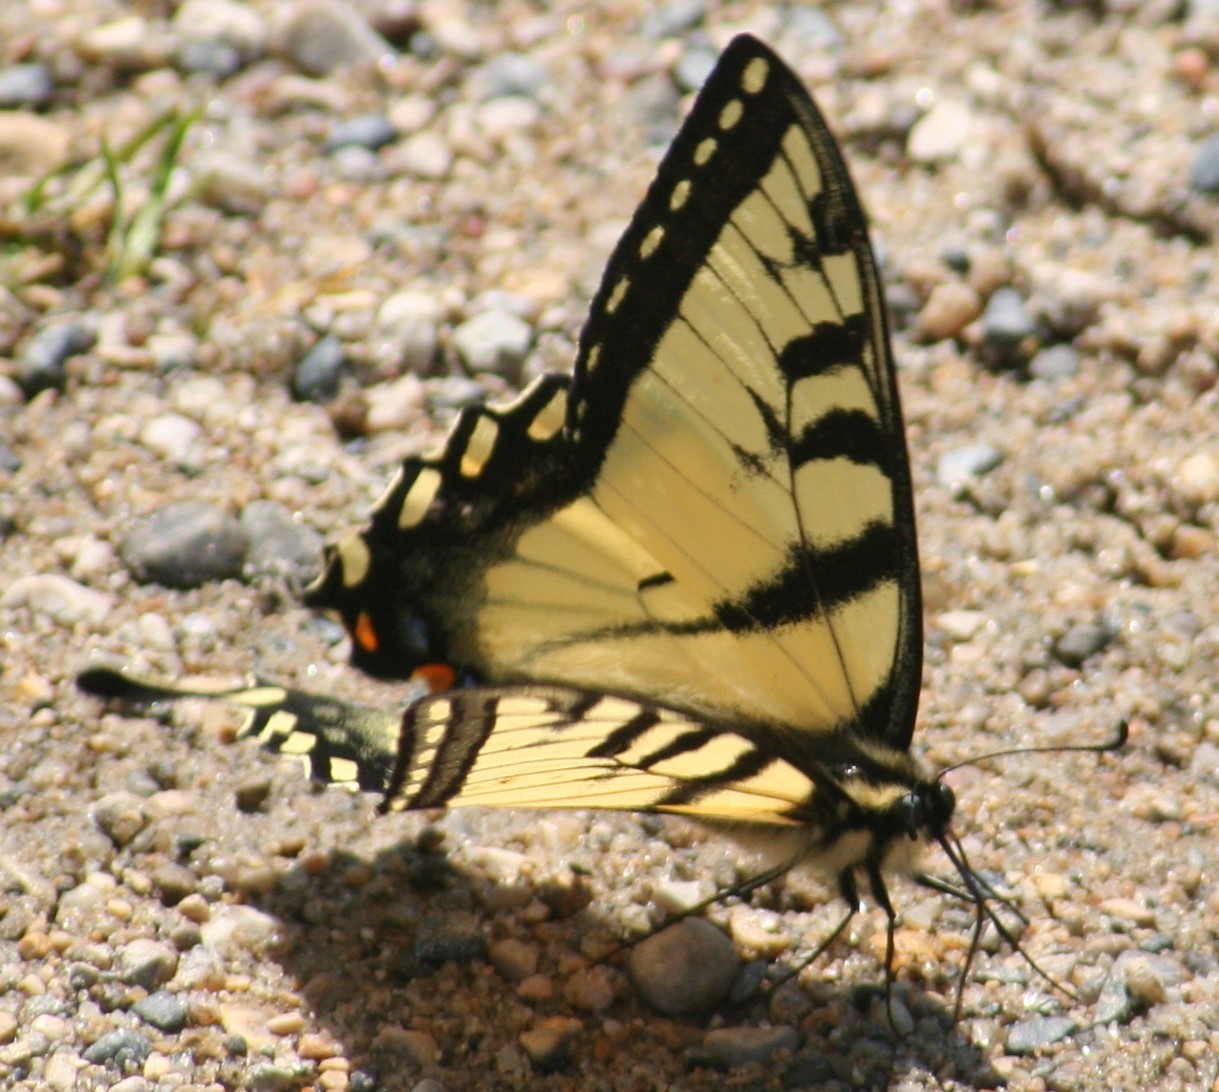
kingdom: Animalia
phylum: Arthropoda
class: Insecta
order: Lepidoptera
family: Papilionidae
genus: Papilio
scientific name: Papilio canadensis
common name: Canadian tiger swallowtail
